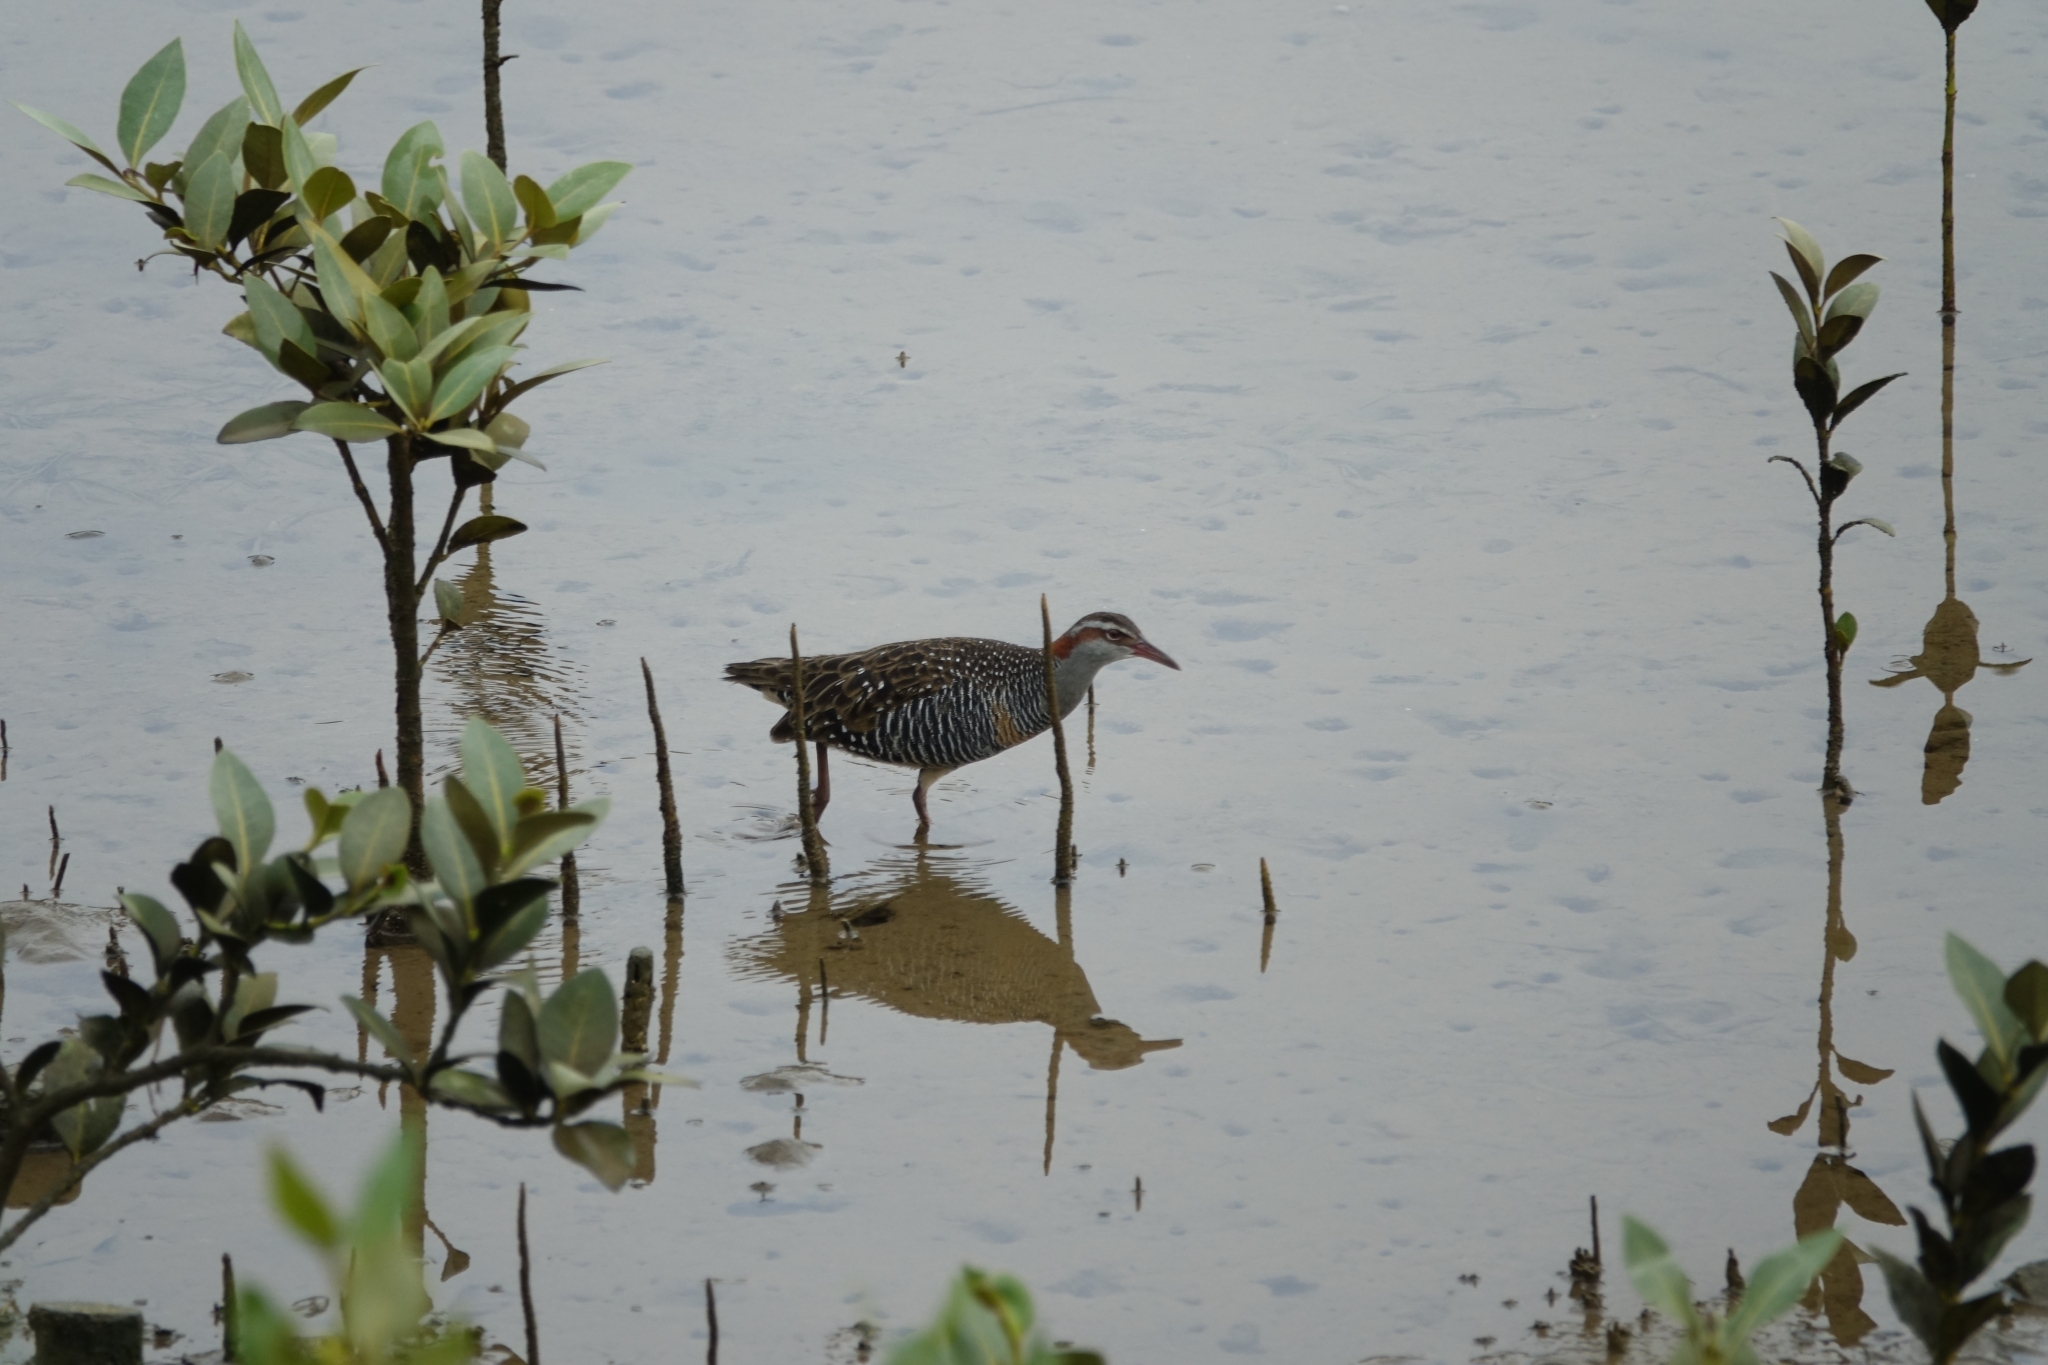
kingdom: Animalia
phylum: Chordata
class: Aves
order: Gruiformes
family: Rallidae
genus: Gallirallus
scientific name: Gallirallus philippensis
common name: Buff-banded rail
